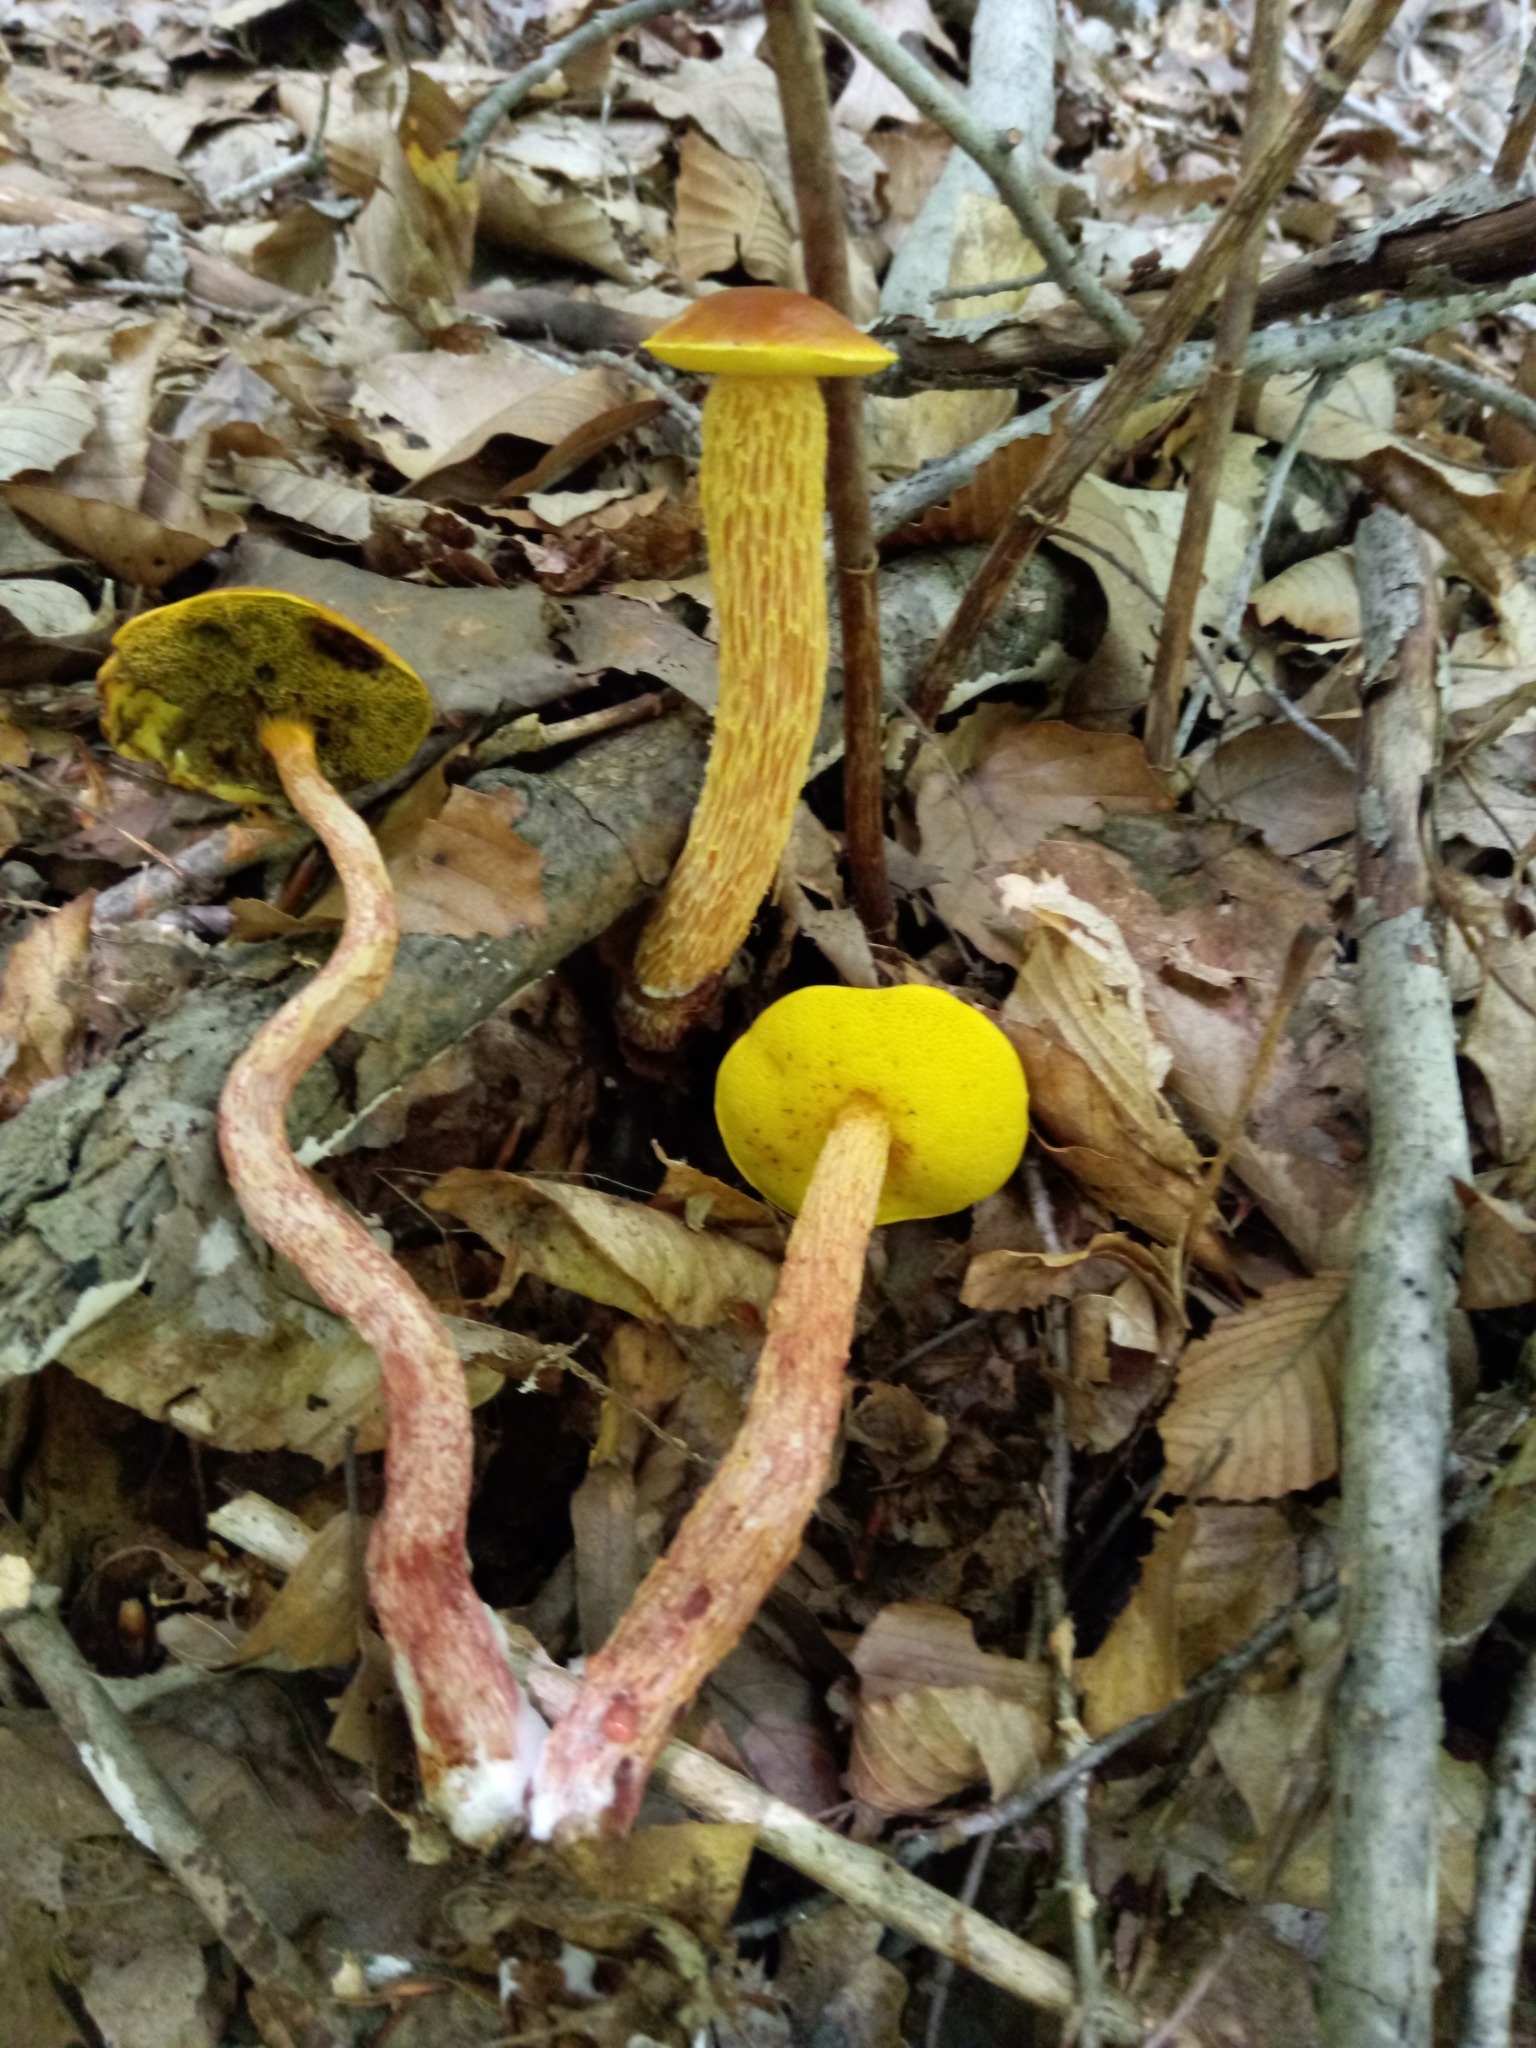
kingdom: Fungi
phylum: Basidiomycota
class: Agaricomycetes
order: Boletales
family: Boletaceae
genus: Aureoboletus
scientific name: Aureoboletus betula
